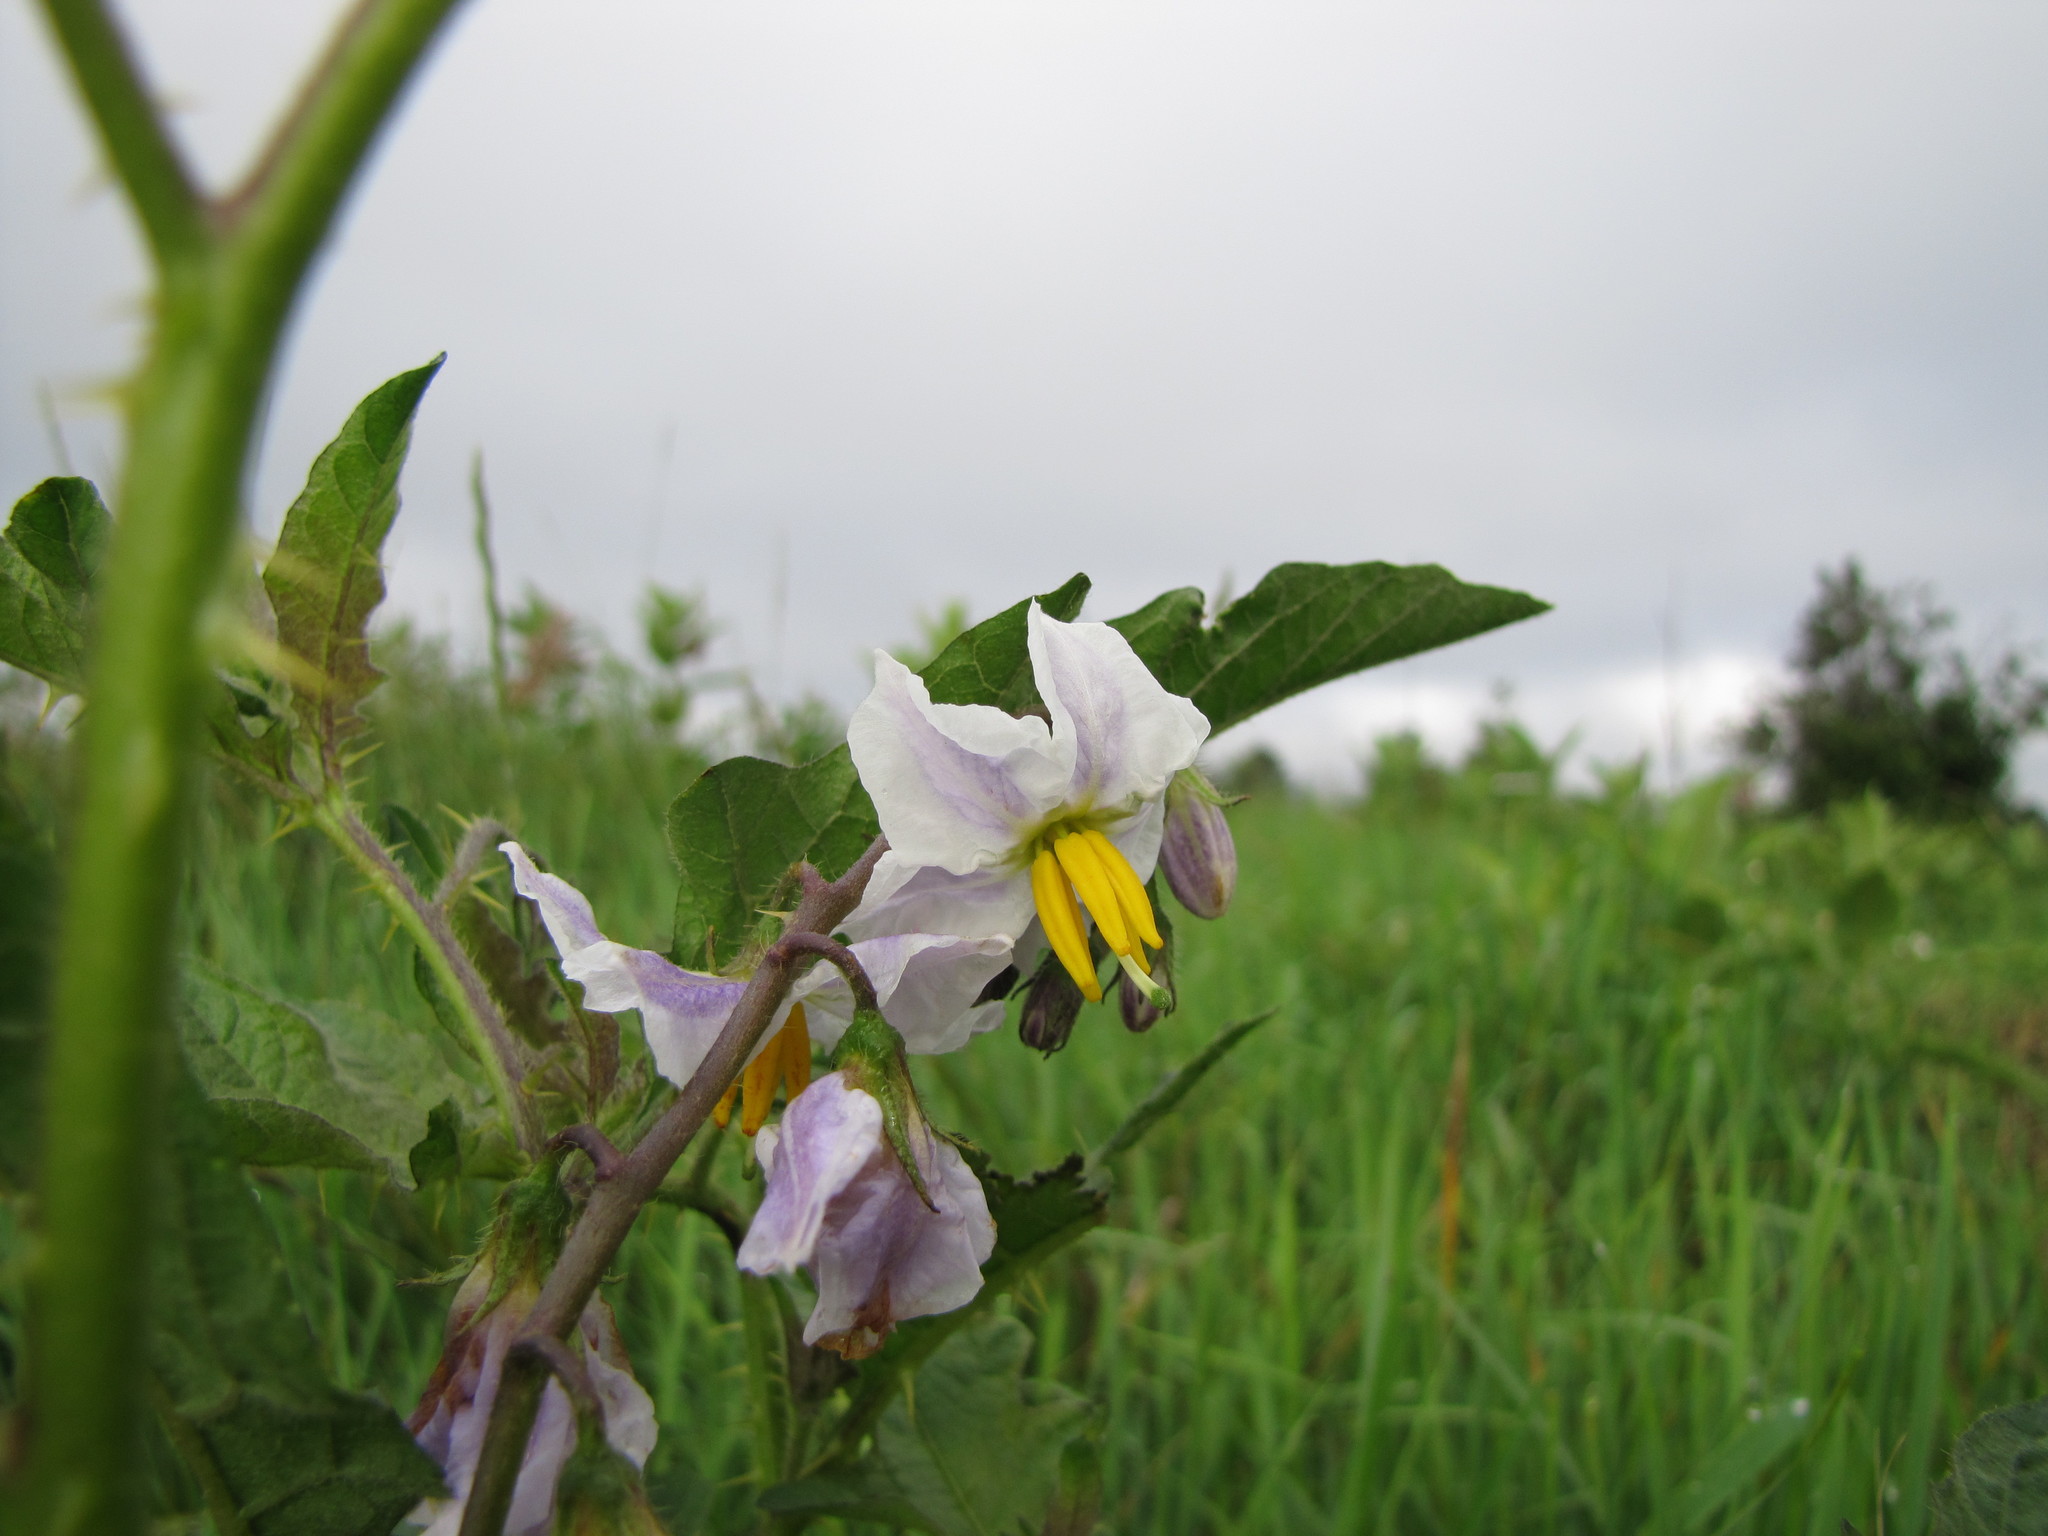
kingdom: Plantae
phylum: Tracheophyta
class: Magnoliopsida
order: Solanales
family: Solanaceae
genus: Solanum
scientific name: Solanum carolinense
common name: Horse-nettle
